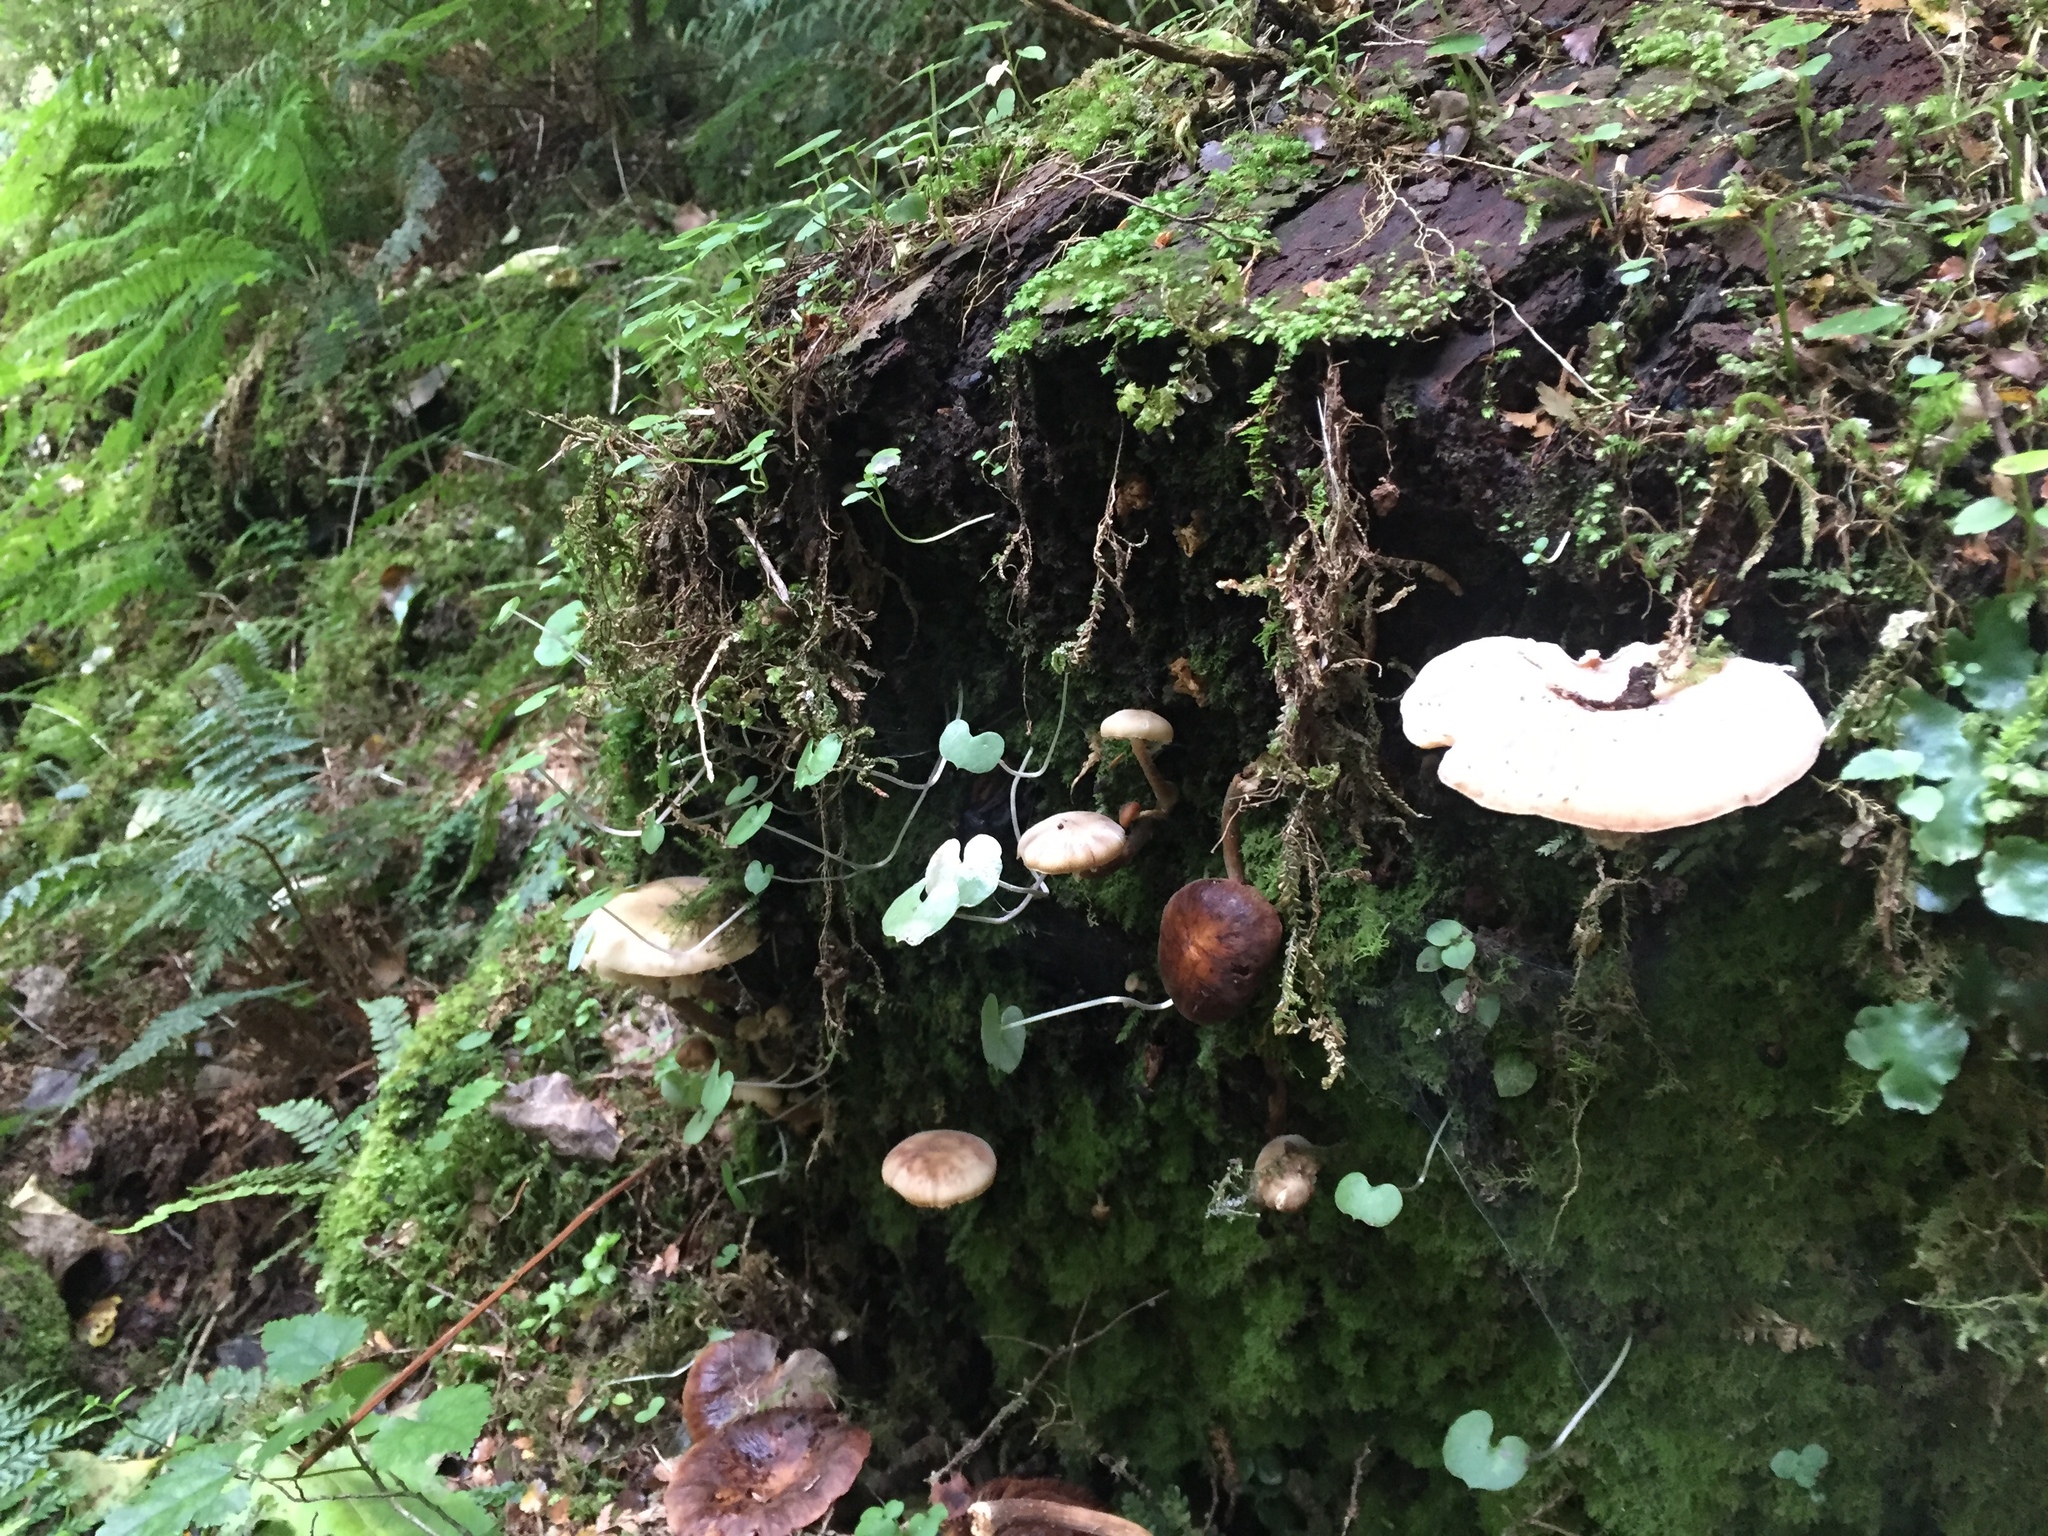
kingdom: Fungi
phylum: Basidiomycota
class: Agaricomycetes
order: Agaricales
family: Physalacriaceae
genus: Armillaria
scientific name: Armillaria novae-zelandiae
